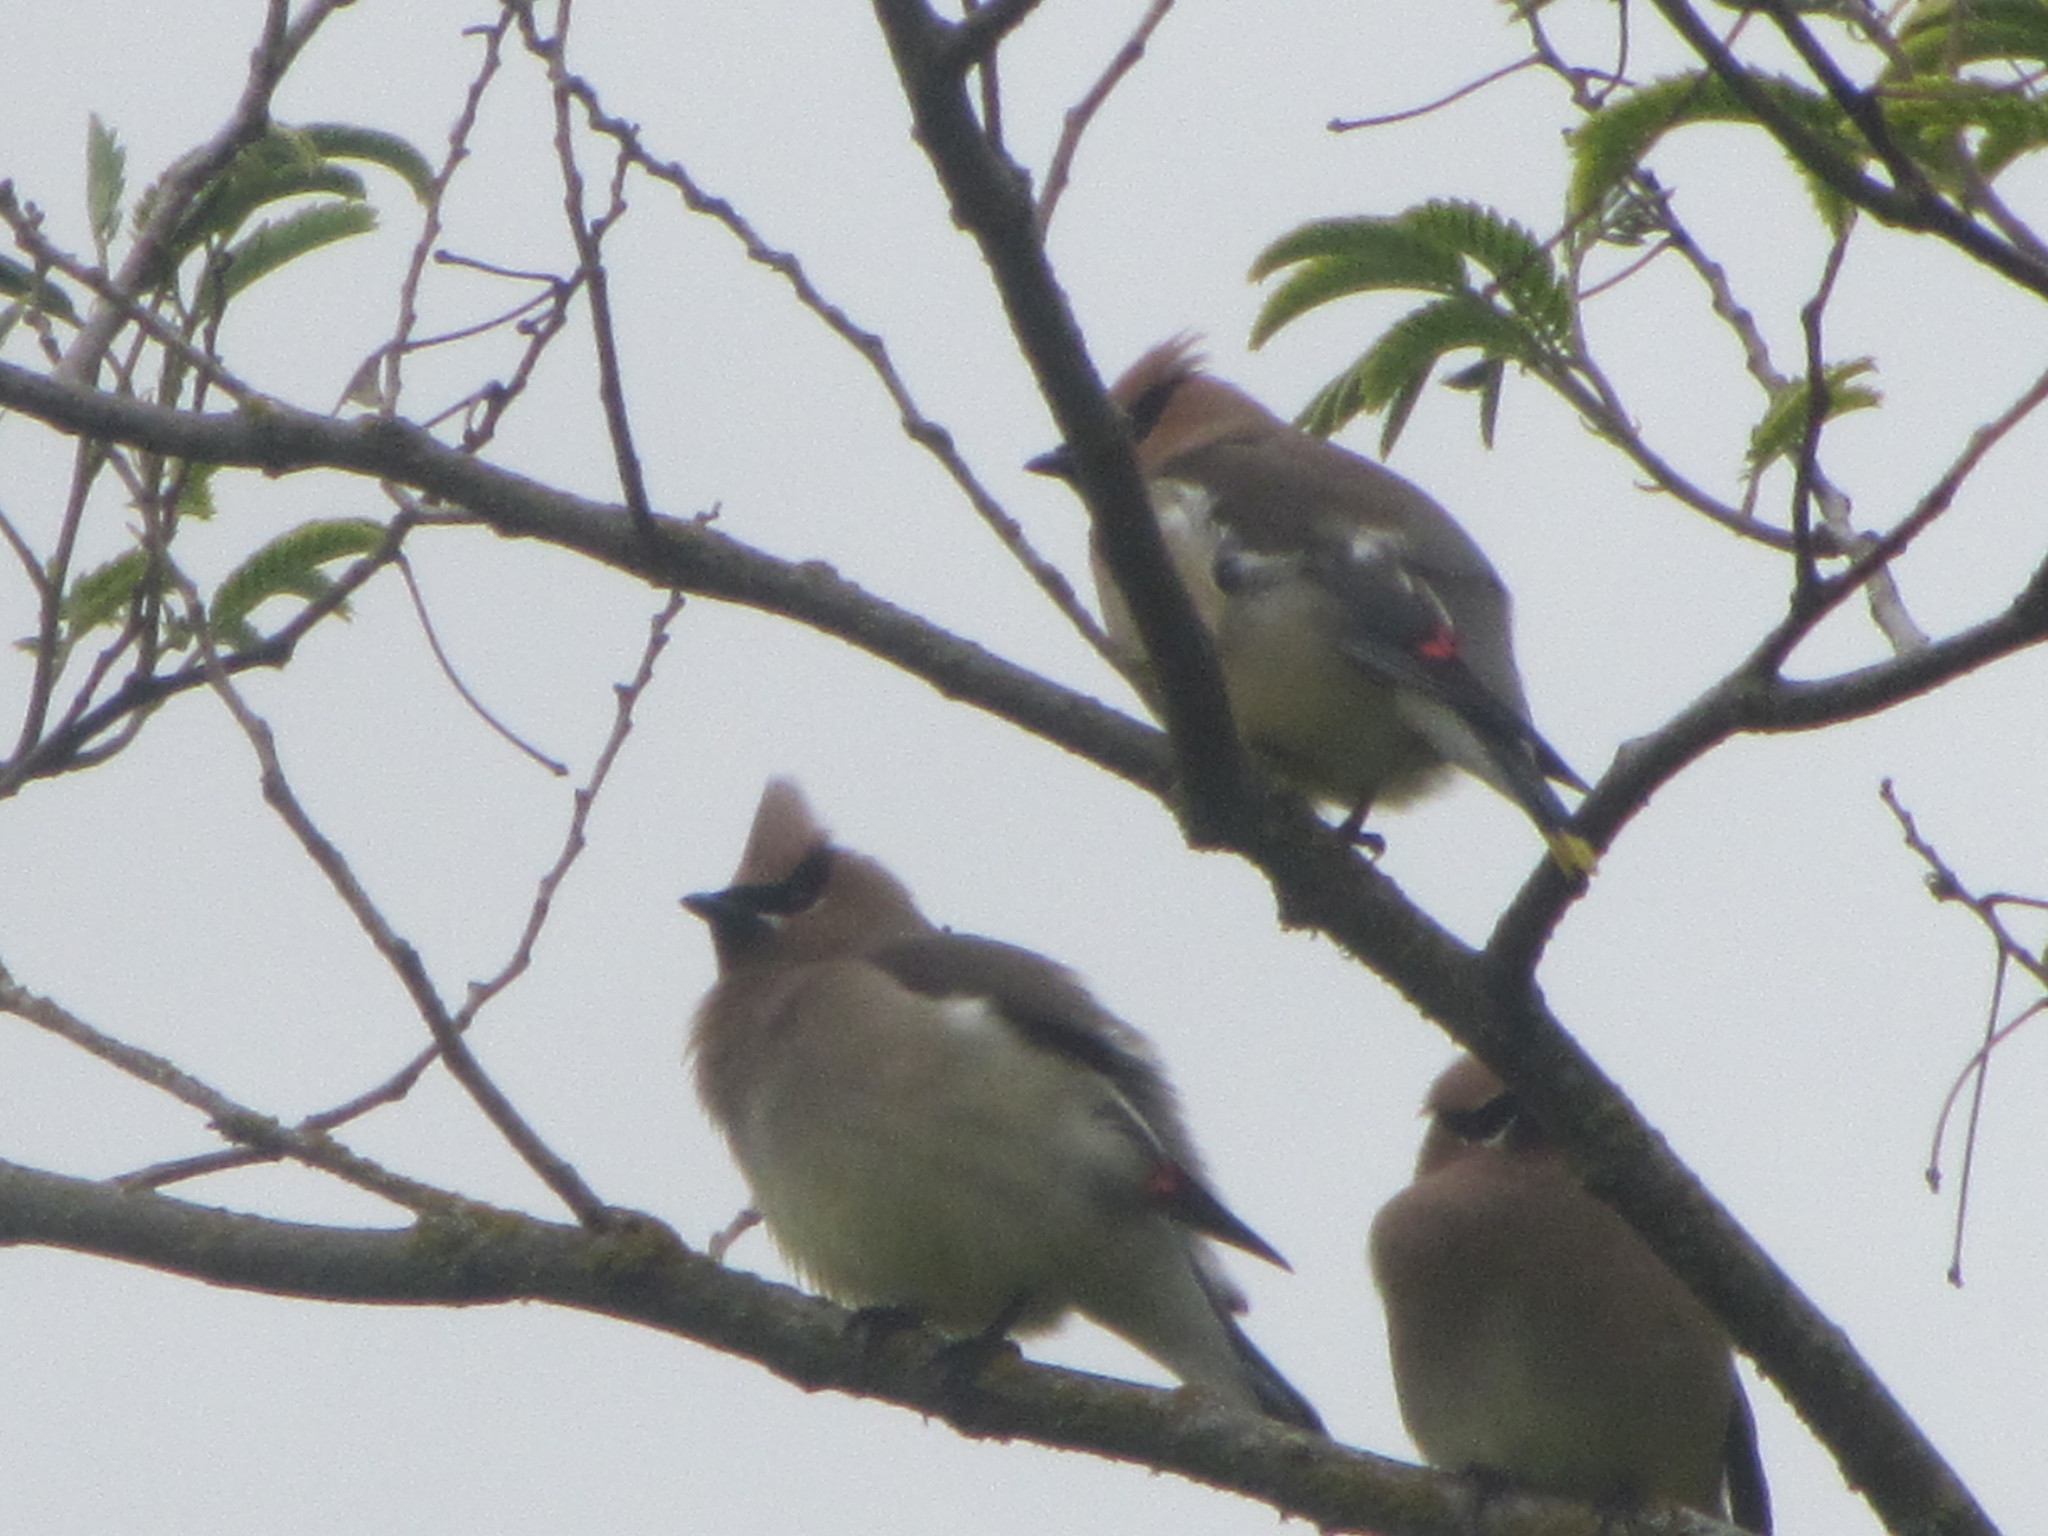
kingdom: Animalia
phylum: Chordata
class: Aves
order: Passeriformes
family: Bombycillidae
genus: Bombycilla
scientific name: Bombycilla cedrorum
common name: Cedar waxwing
